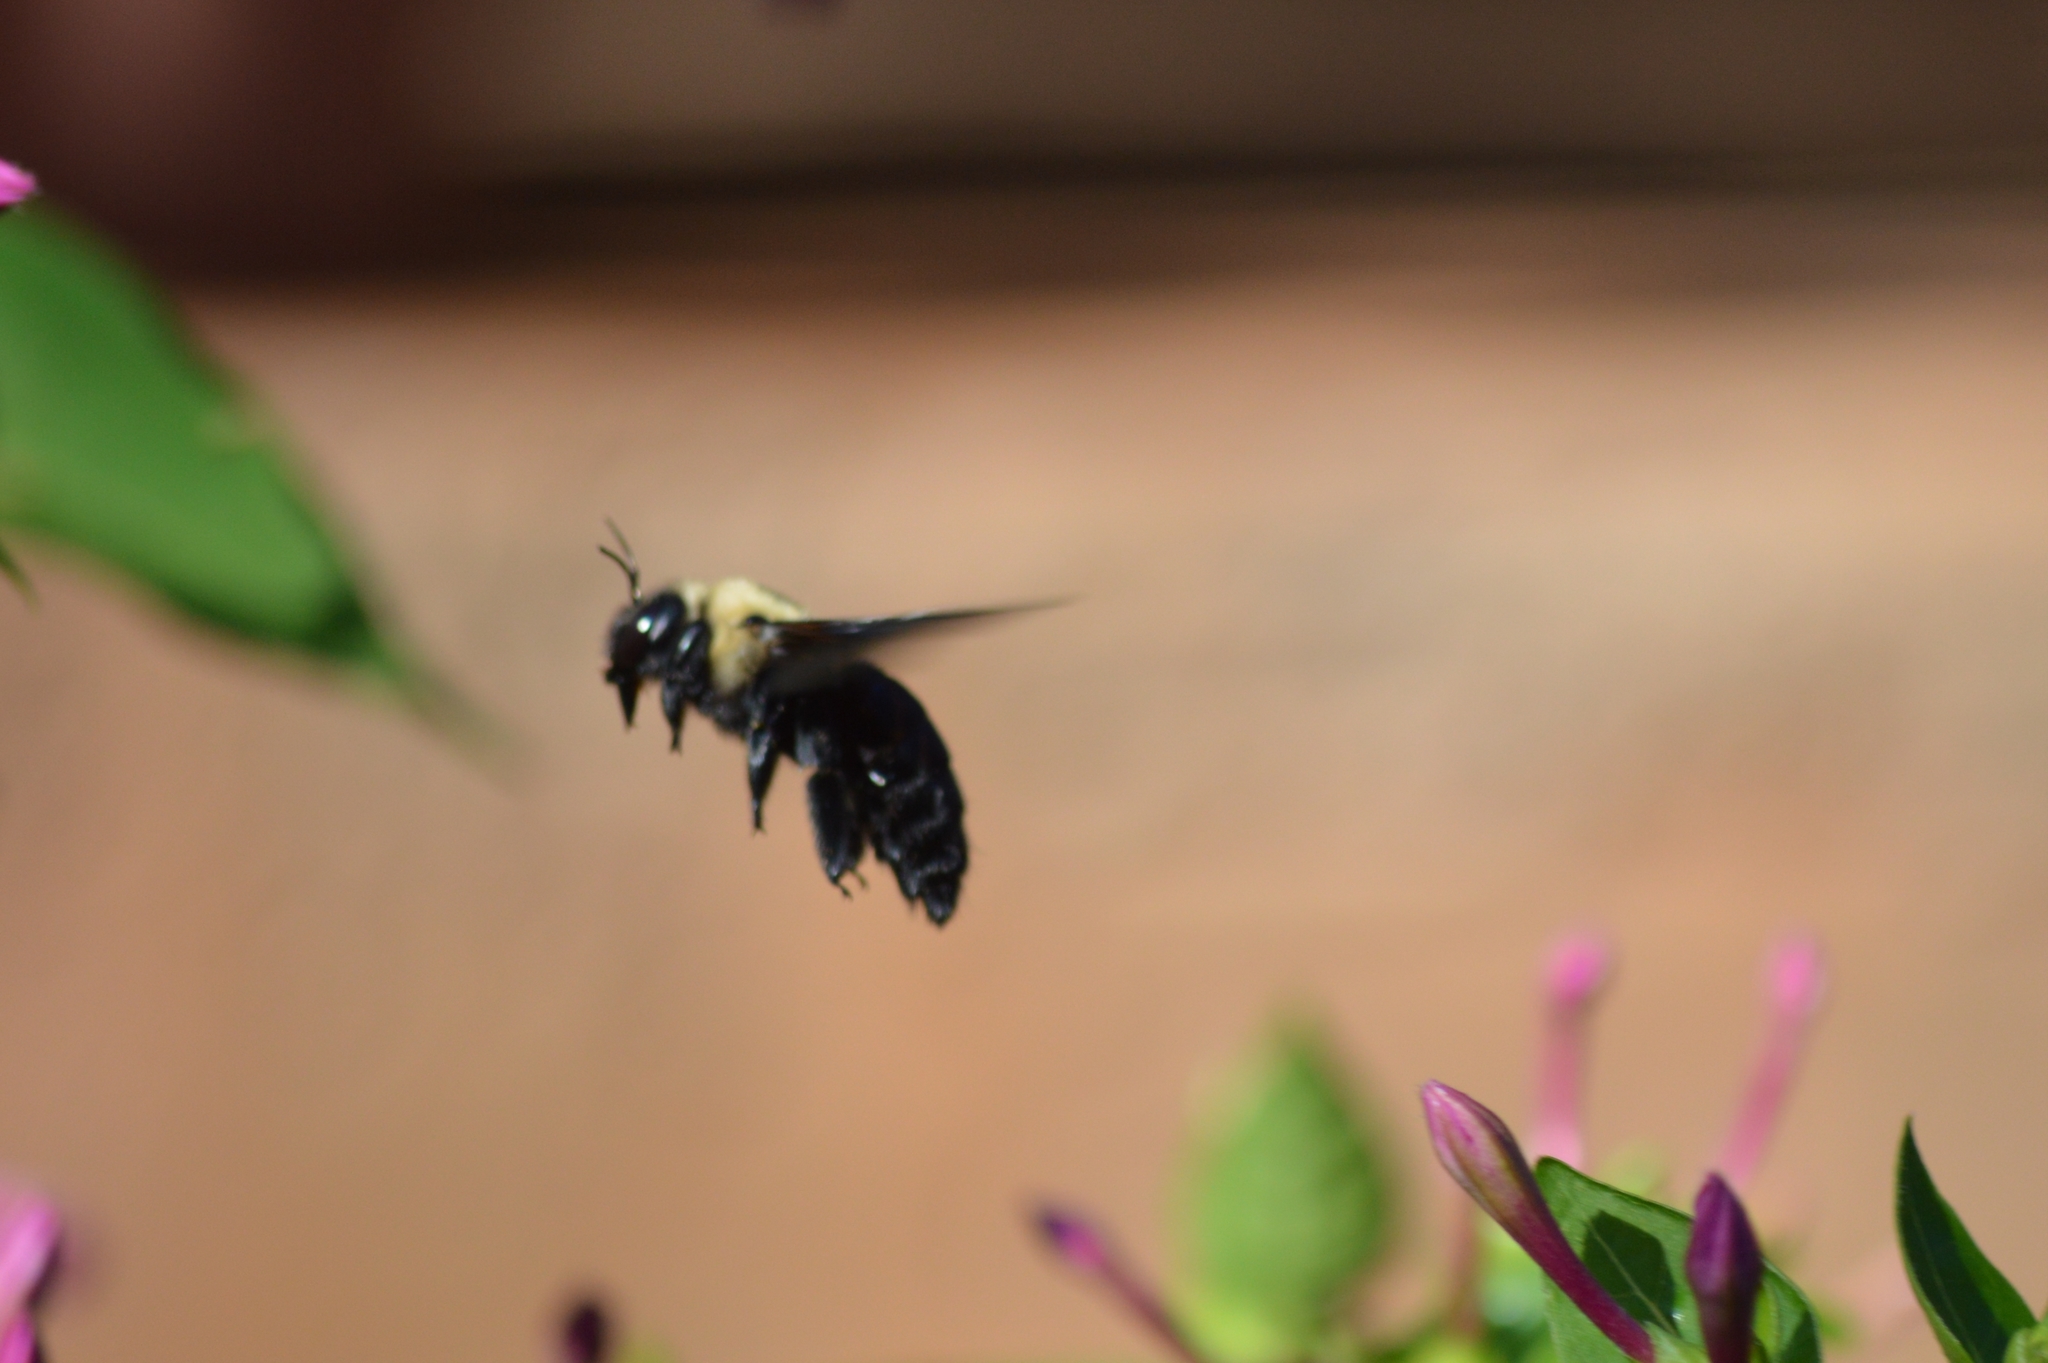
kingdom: Animalia
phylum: Arthropoda
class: Insecta
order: Hymenoptera
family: Apidae
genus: Xylocopa
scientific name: Xylocopa grisescens
